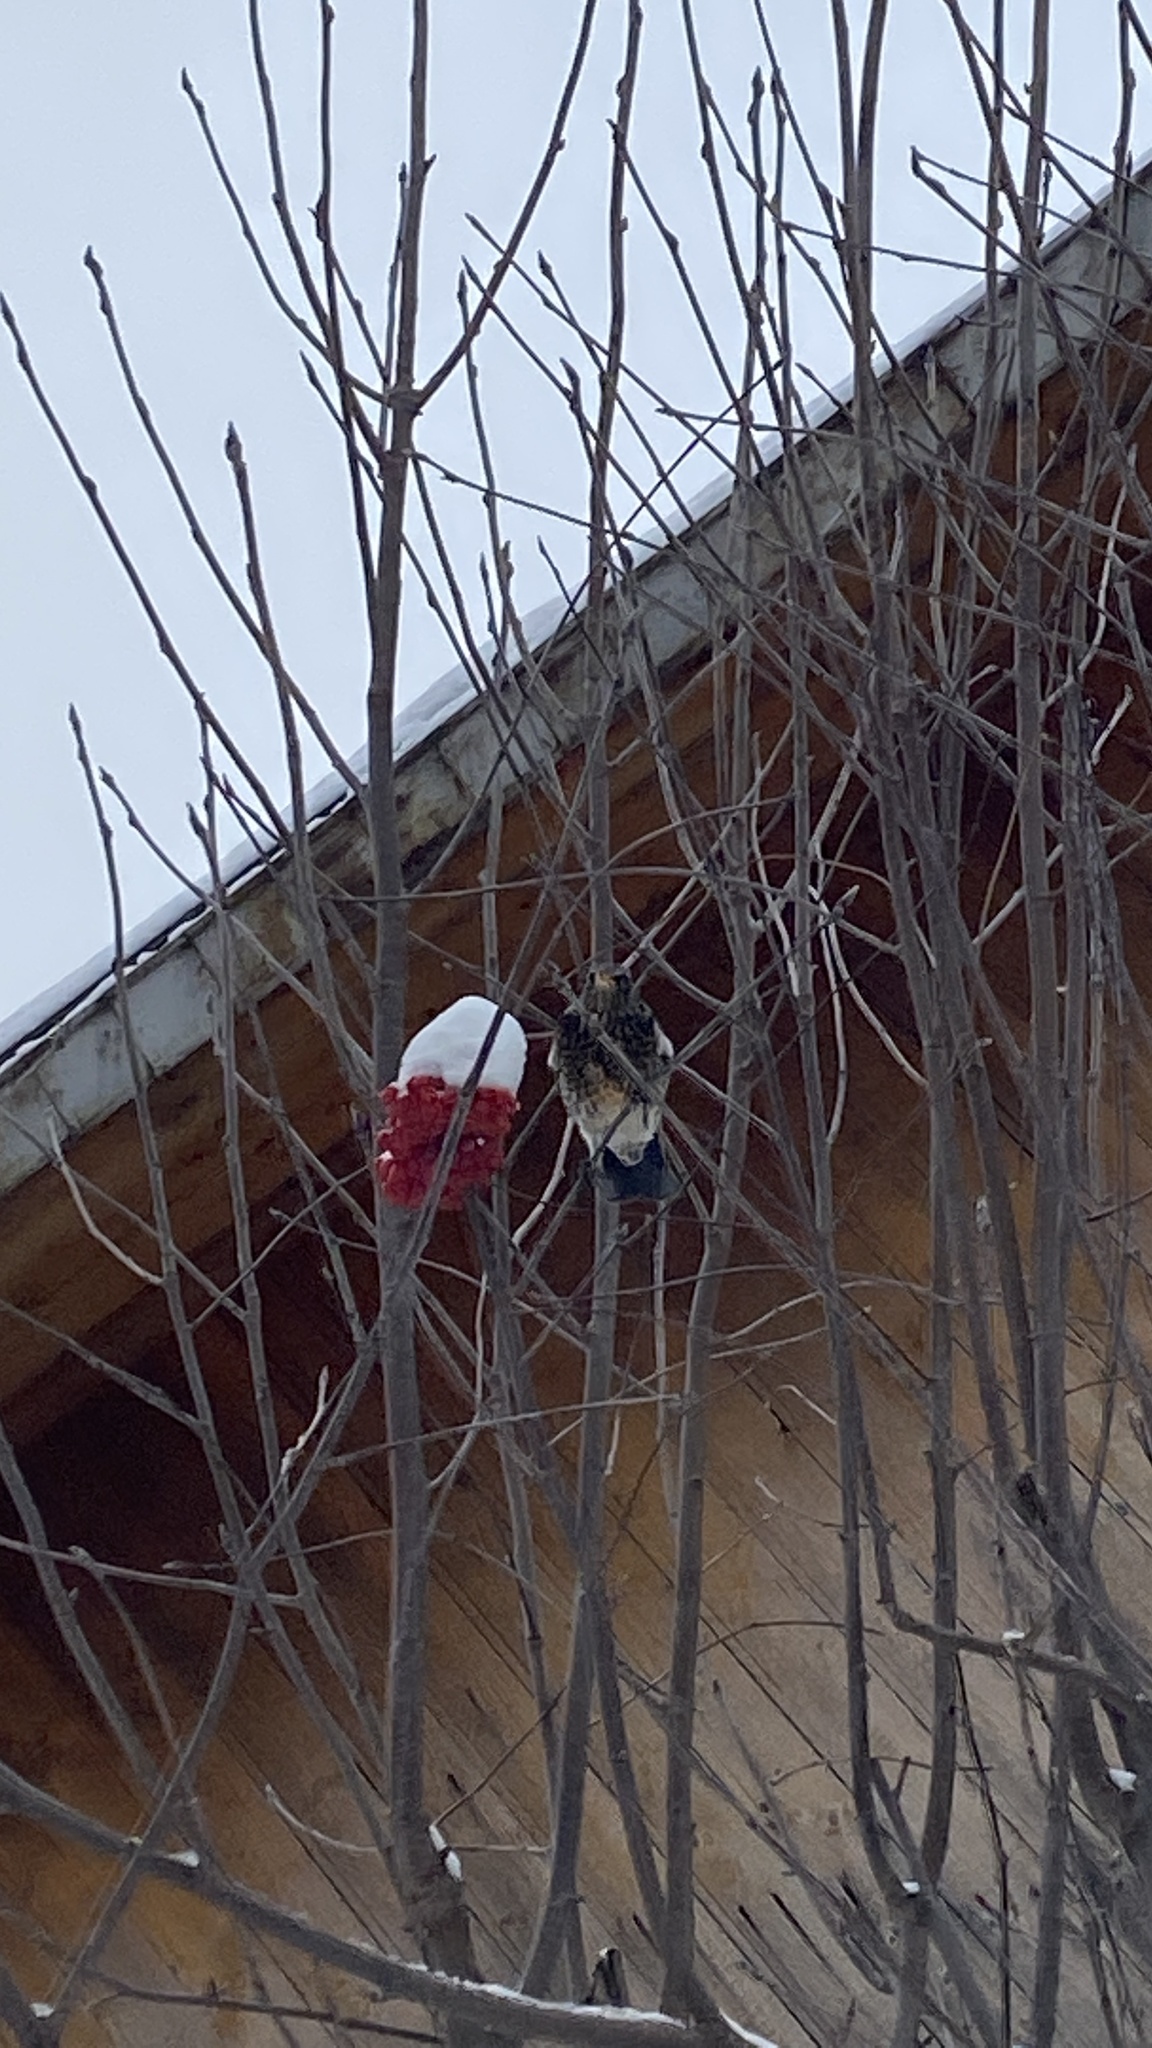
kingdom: Animalia
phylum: Chordata
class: Aves
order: Passeriformes
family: Turdidae
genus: Turdus
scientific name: Turdus pilaris
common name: Fieldfare
